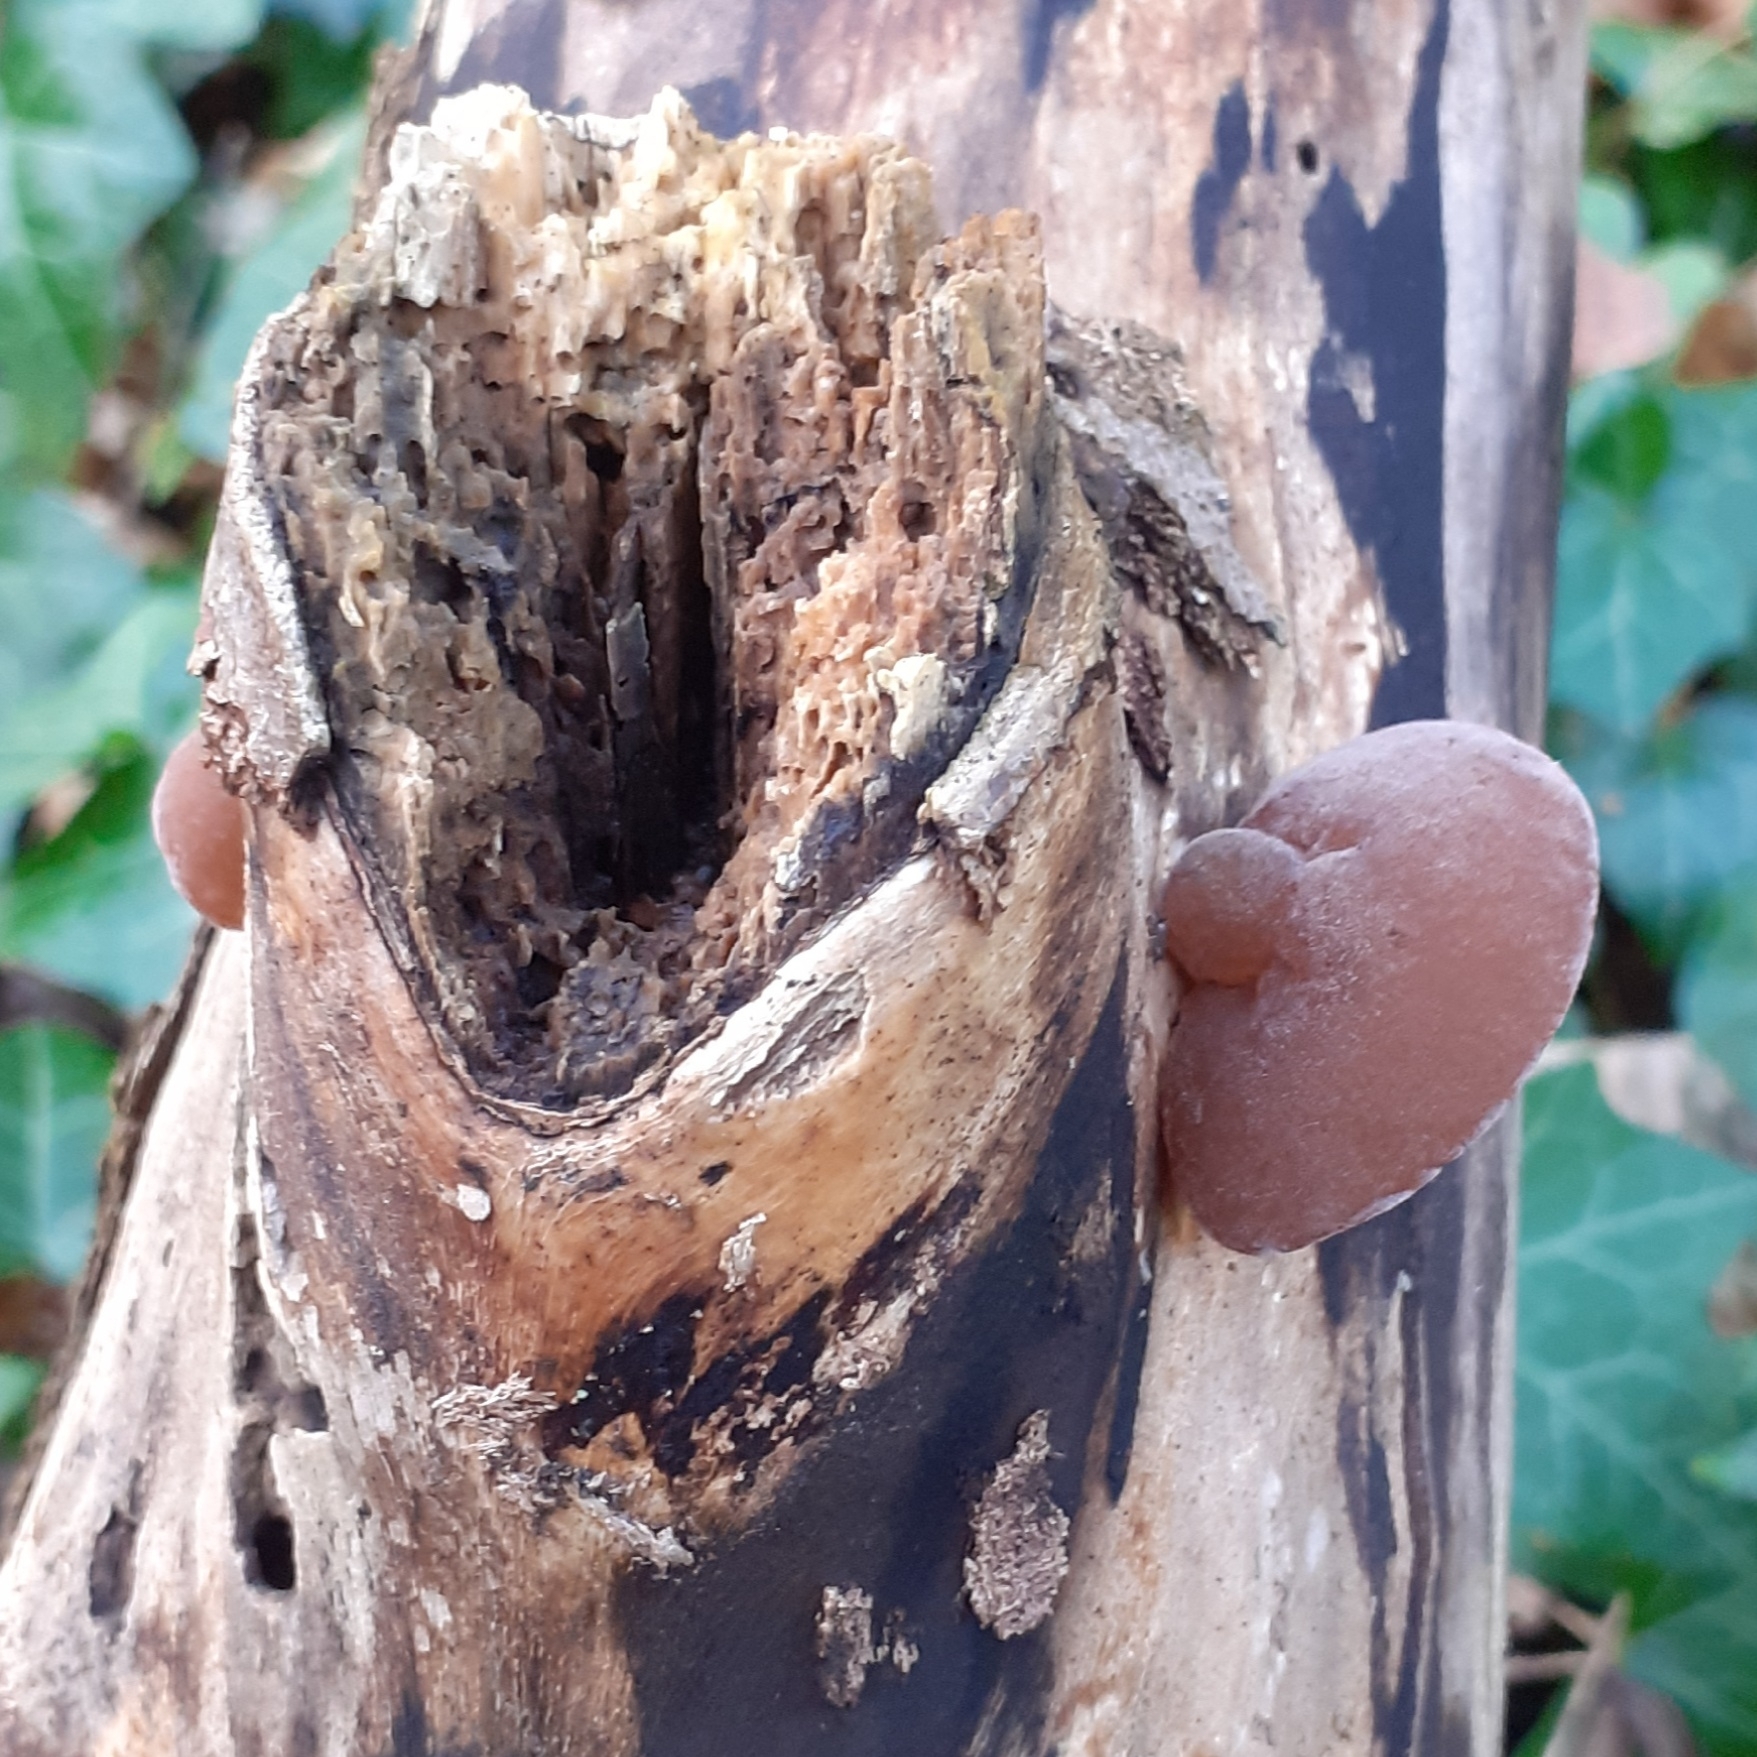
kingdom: Fungi
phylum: Basidiomycota
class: Agaricomycetes
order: Auriculariales
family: Auriculariaceae
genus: Auricularia
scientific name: Auricularia auricula-judae
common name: Jelly ear
